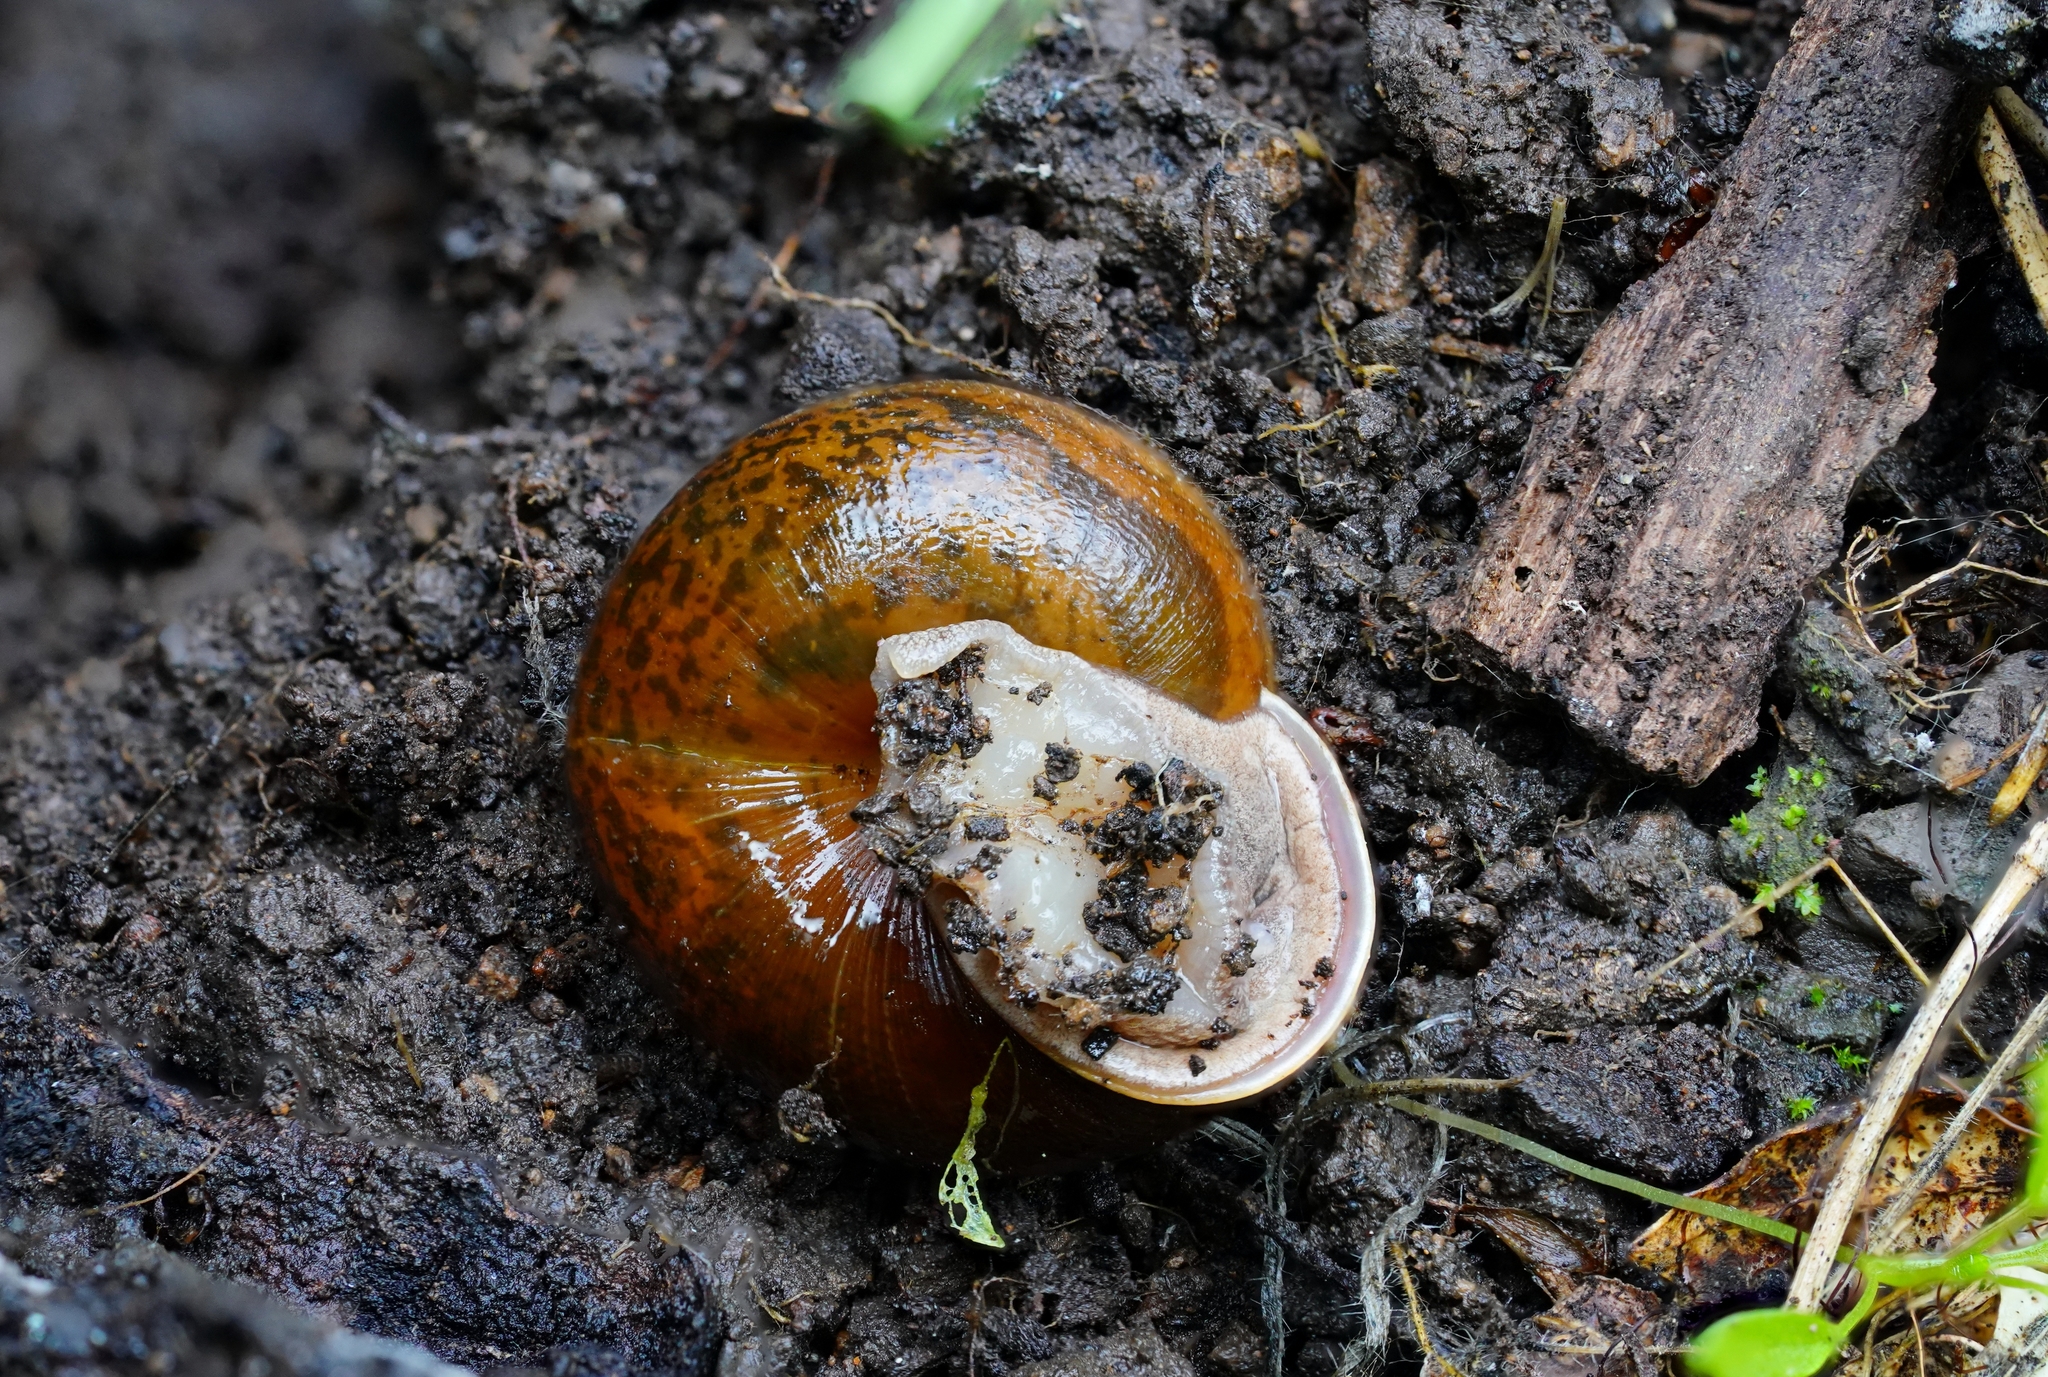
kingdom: Animalia
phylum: Mollusca
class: Gastropoda
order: Stylommatophora
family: Xanthonychidae
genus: Helminthoglypta
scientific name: Helminthoglypta diabloensis
